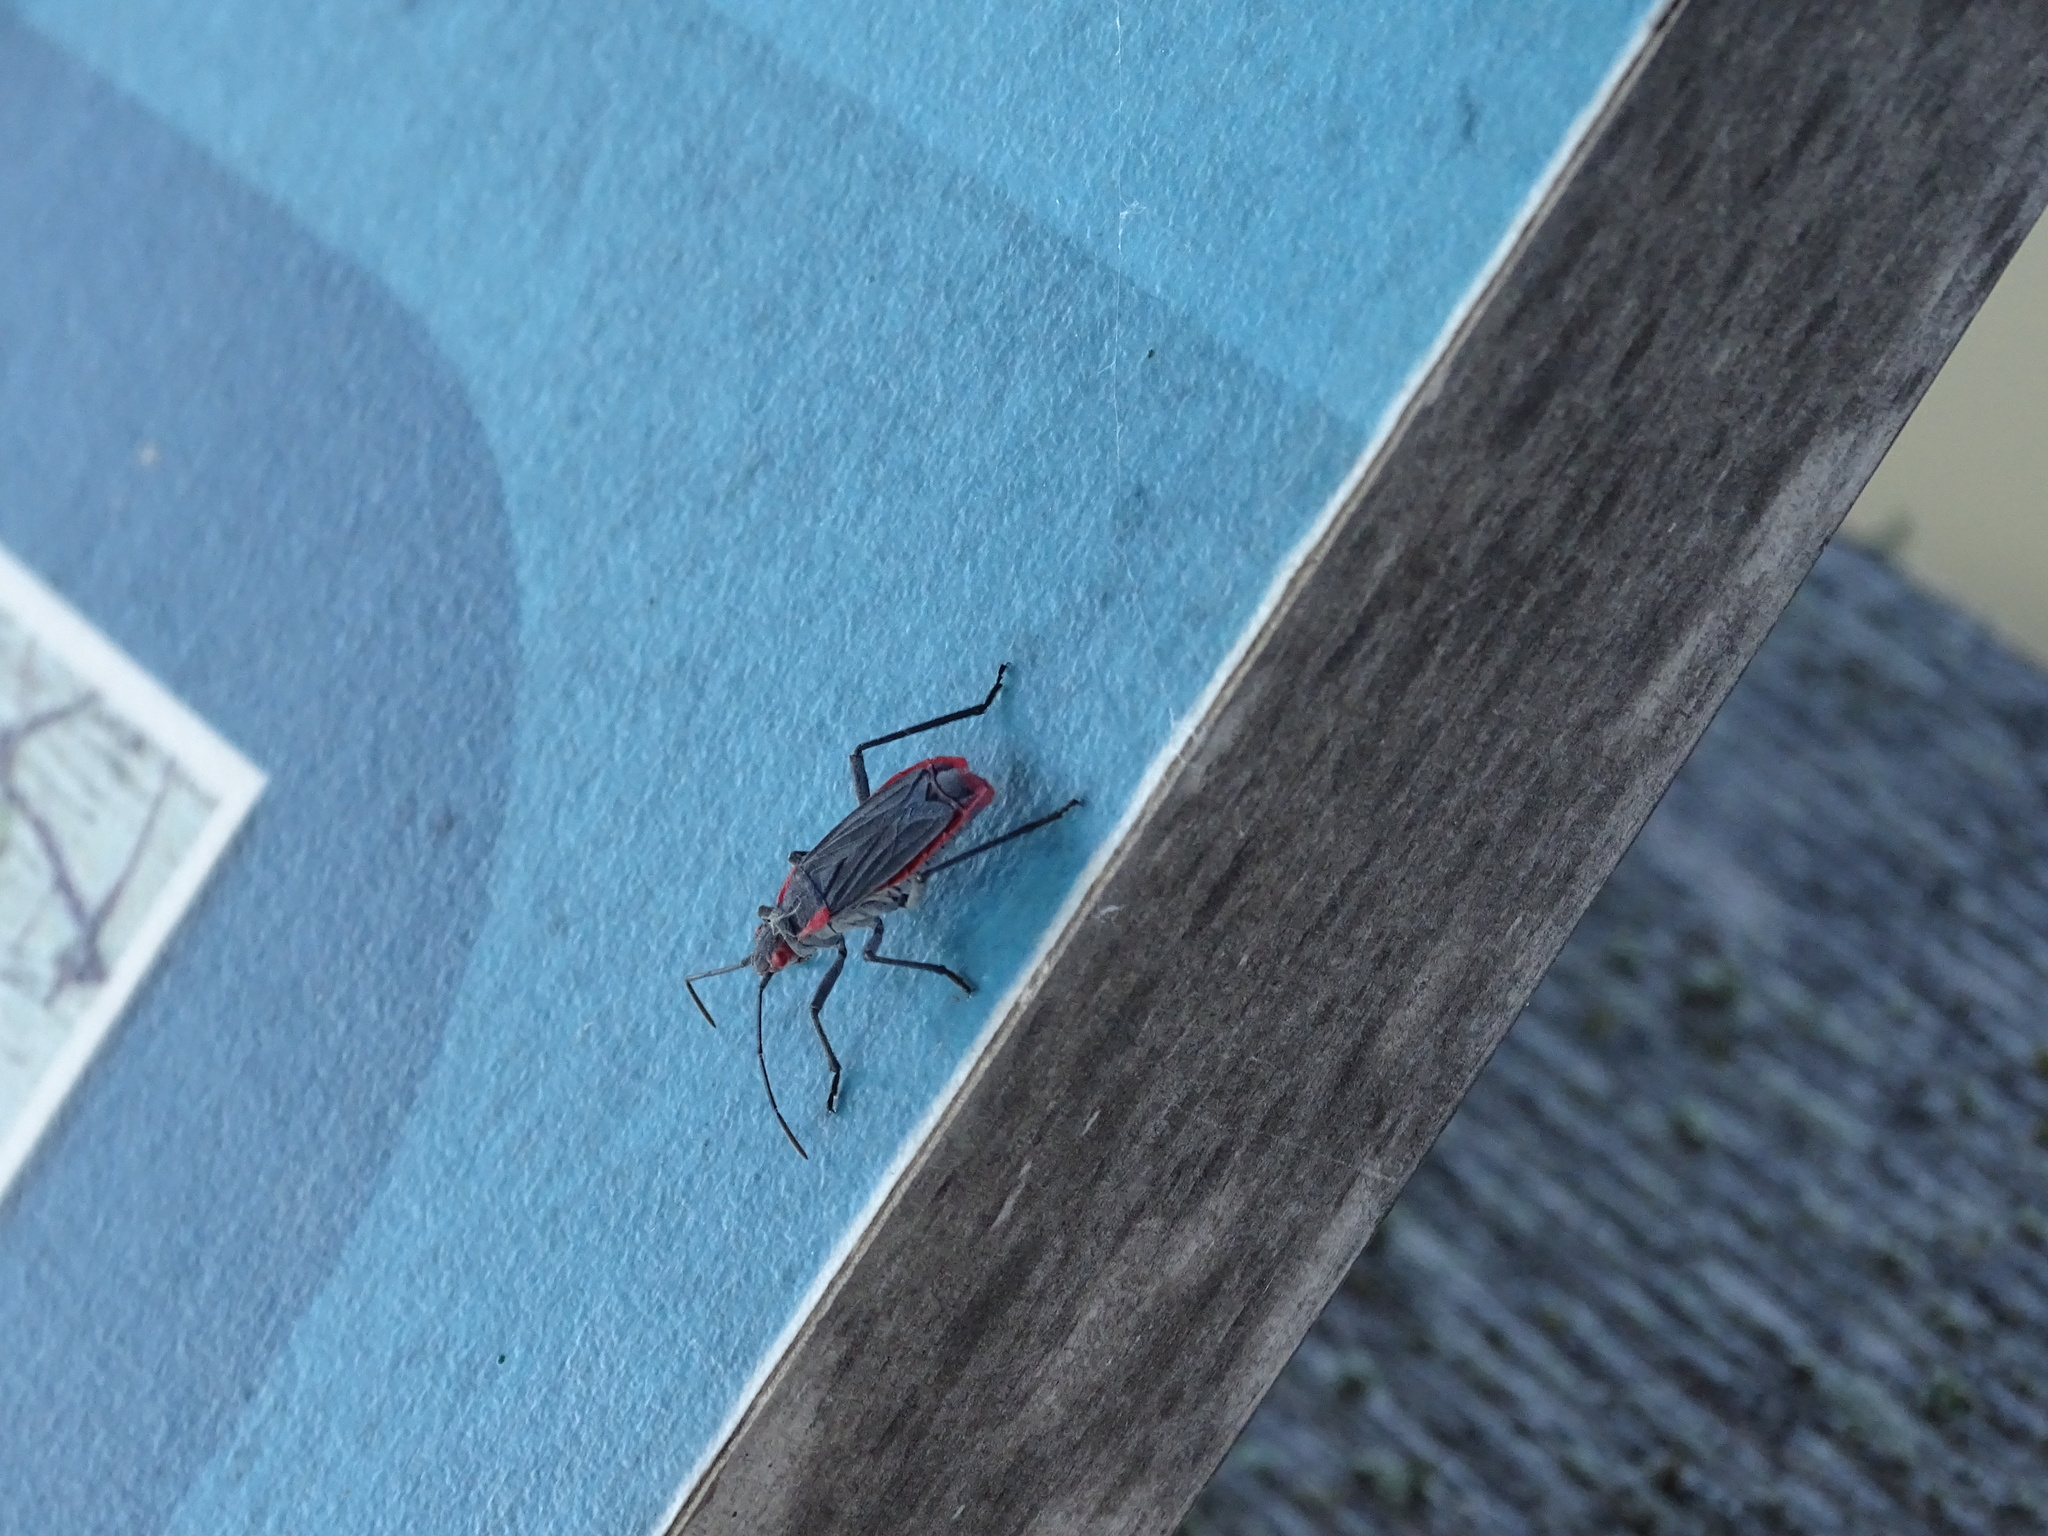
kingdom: Animalia
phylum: Arthropoda
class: Insecta
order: Hemiptera
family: Rhopalidae
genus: Jadera
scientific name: Jadera haematoloma
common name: Red-shouldered bug
